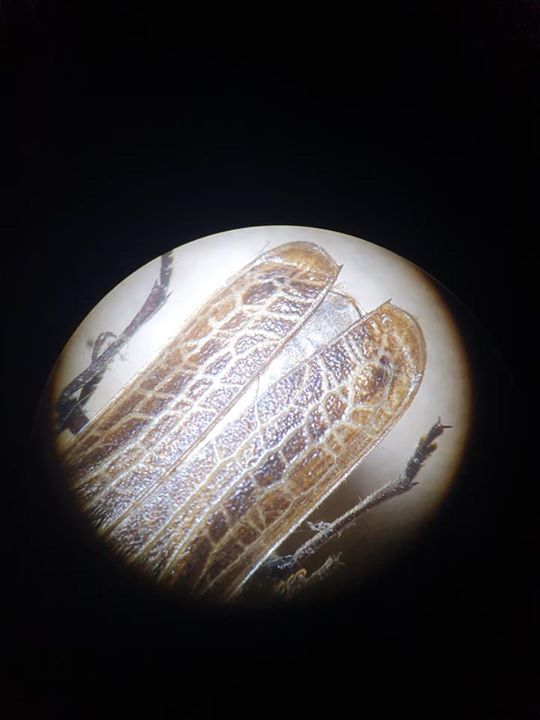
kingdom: Animalia
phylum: Arthropoda
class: Insecta
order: Coleoptera
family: Cerambycidae
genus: Prionoplus
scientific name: Prionoplus reticularis
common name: Huhu beetle
